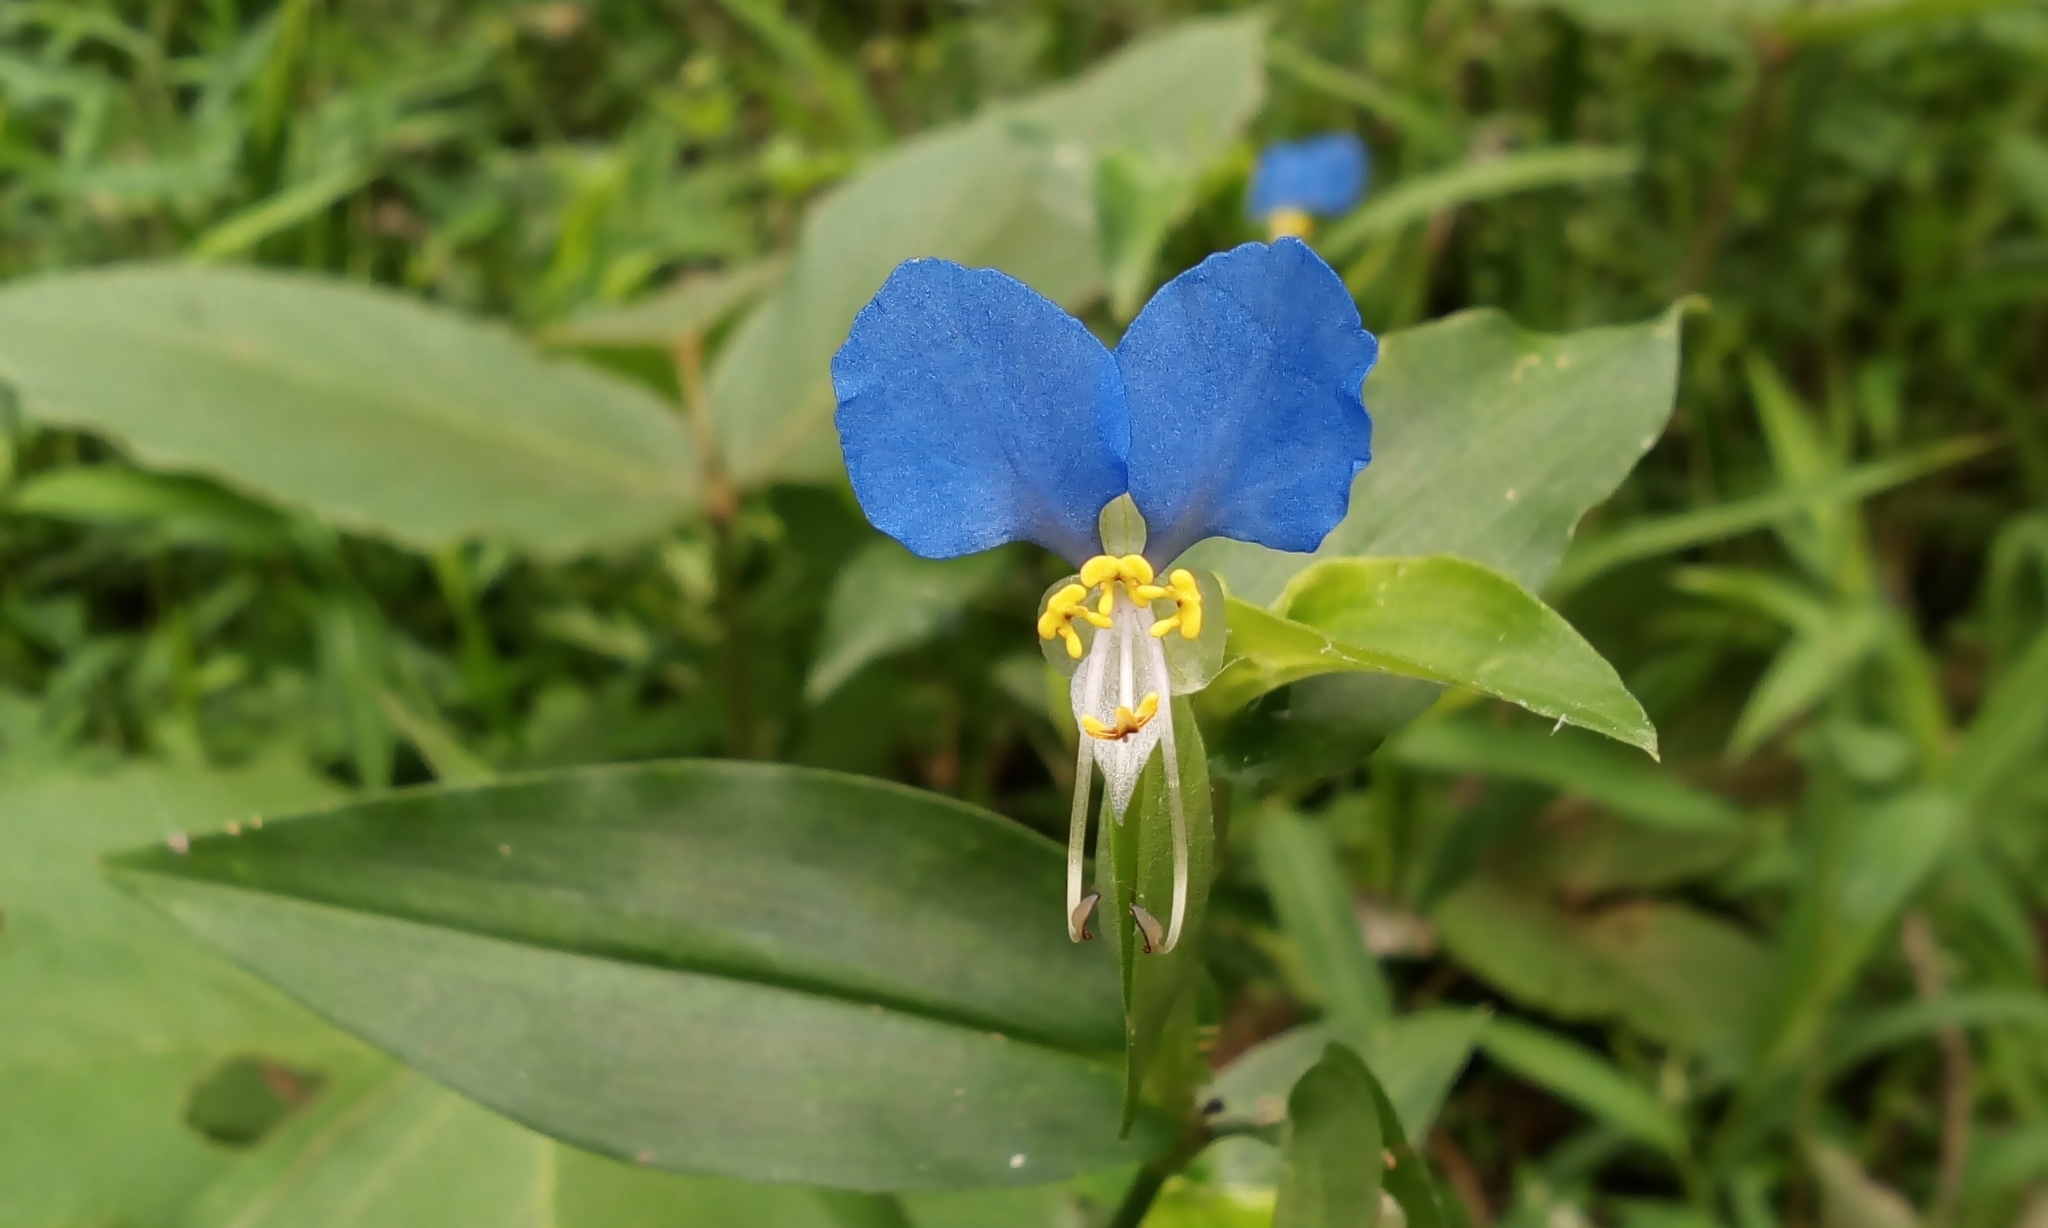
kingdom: Plantae
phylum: Tracheophyta
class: Liliopsida
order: Commelinales
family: Commelinaceae
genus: Commelina
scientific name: Commelina communis
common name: Asiatic dayflower
